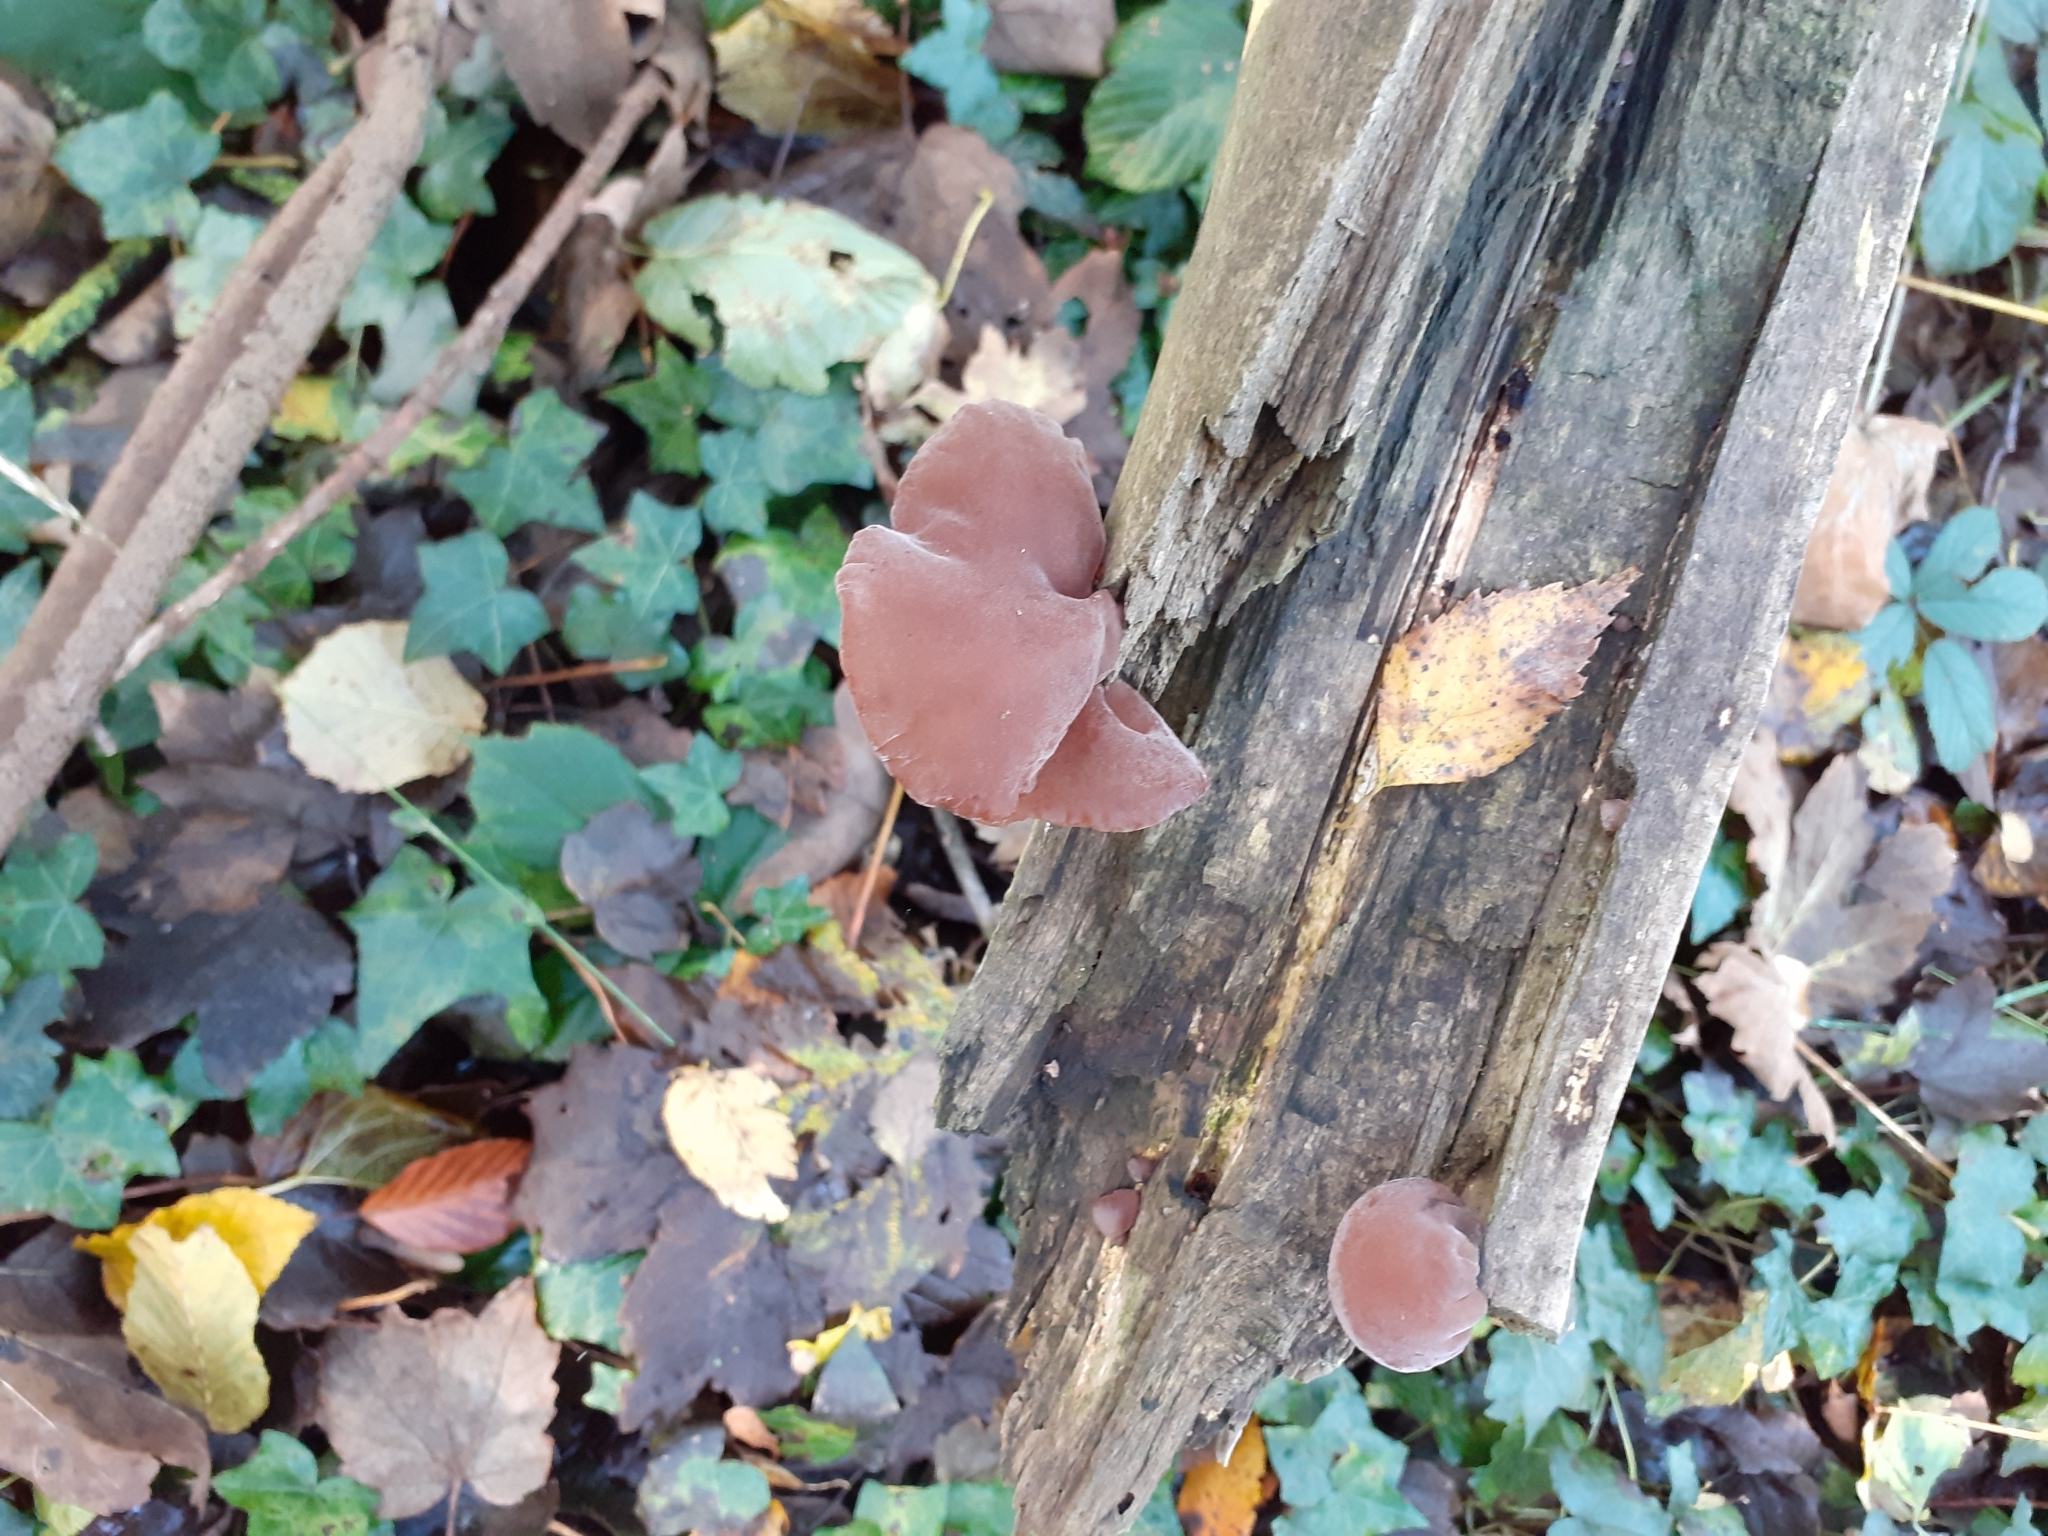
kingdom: Fungi
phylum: Basidiomycota
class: Agaricomycetes
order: Auriculariales
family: Auriculariaceae
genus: Auricularia
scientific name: Auricularia auricula-judae
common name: Jelly ear
